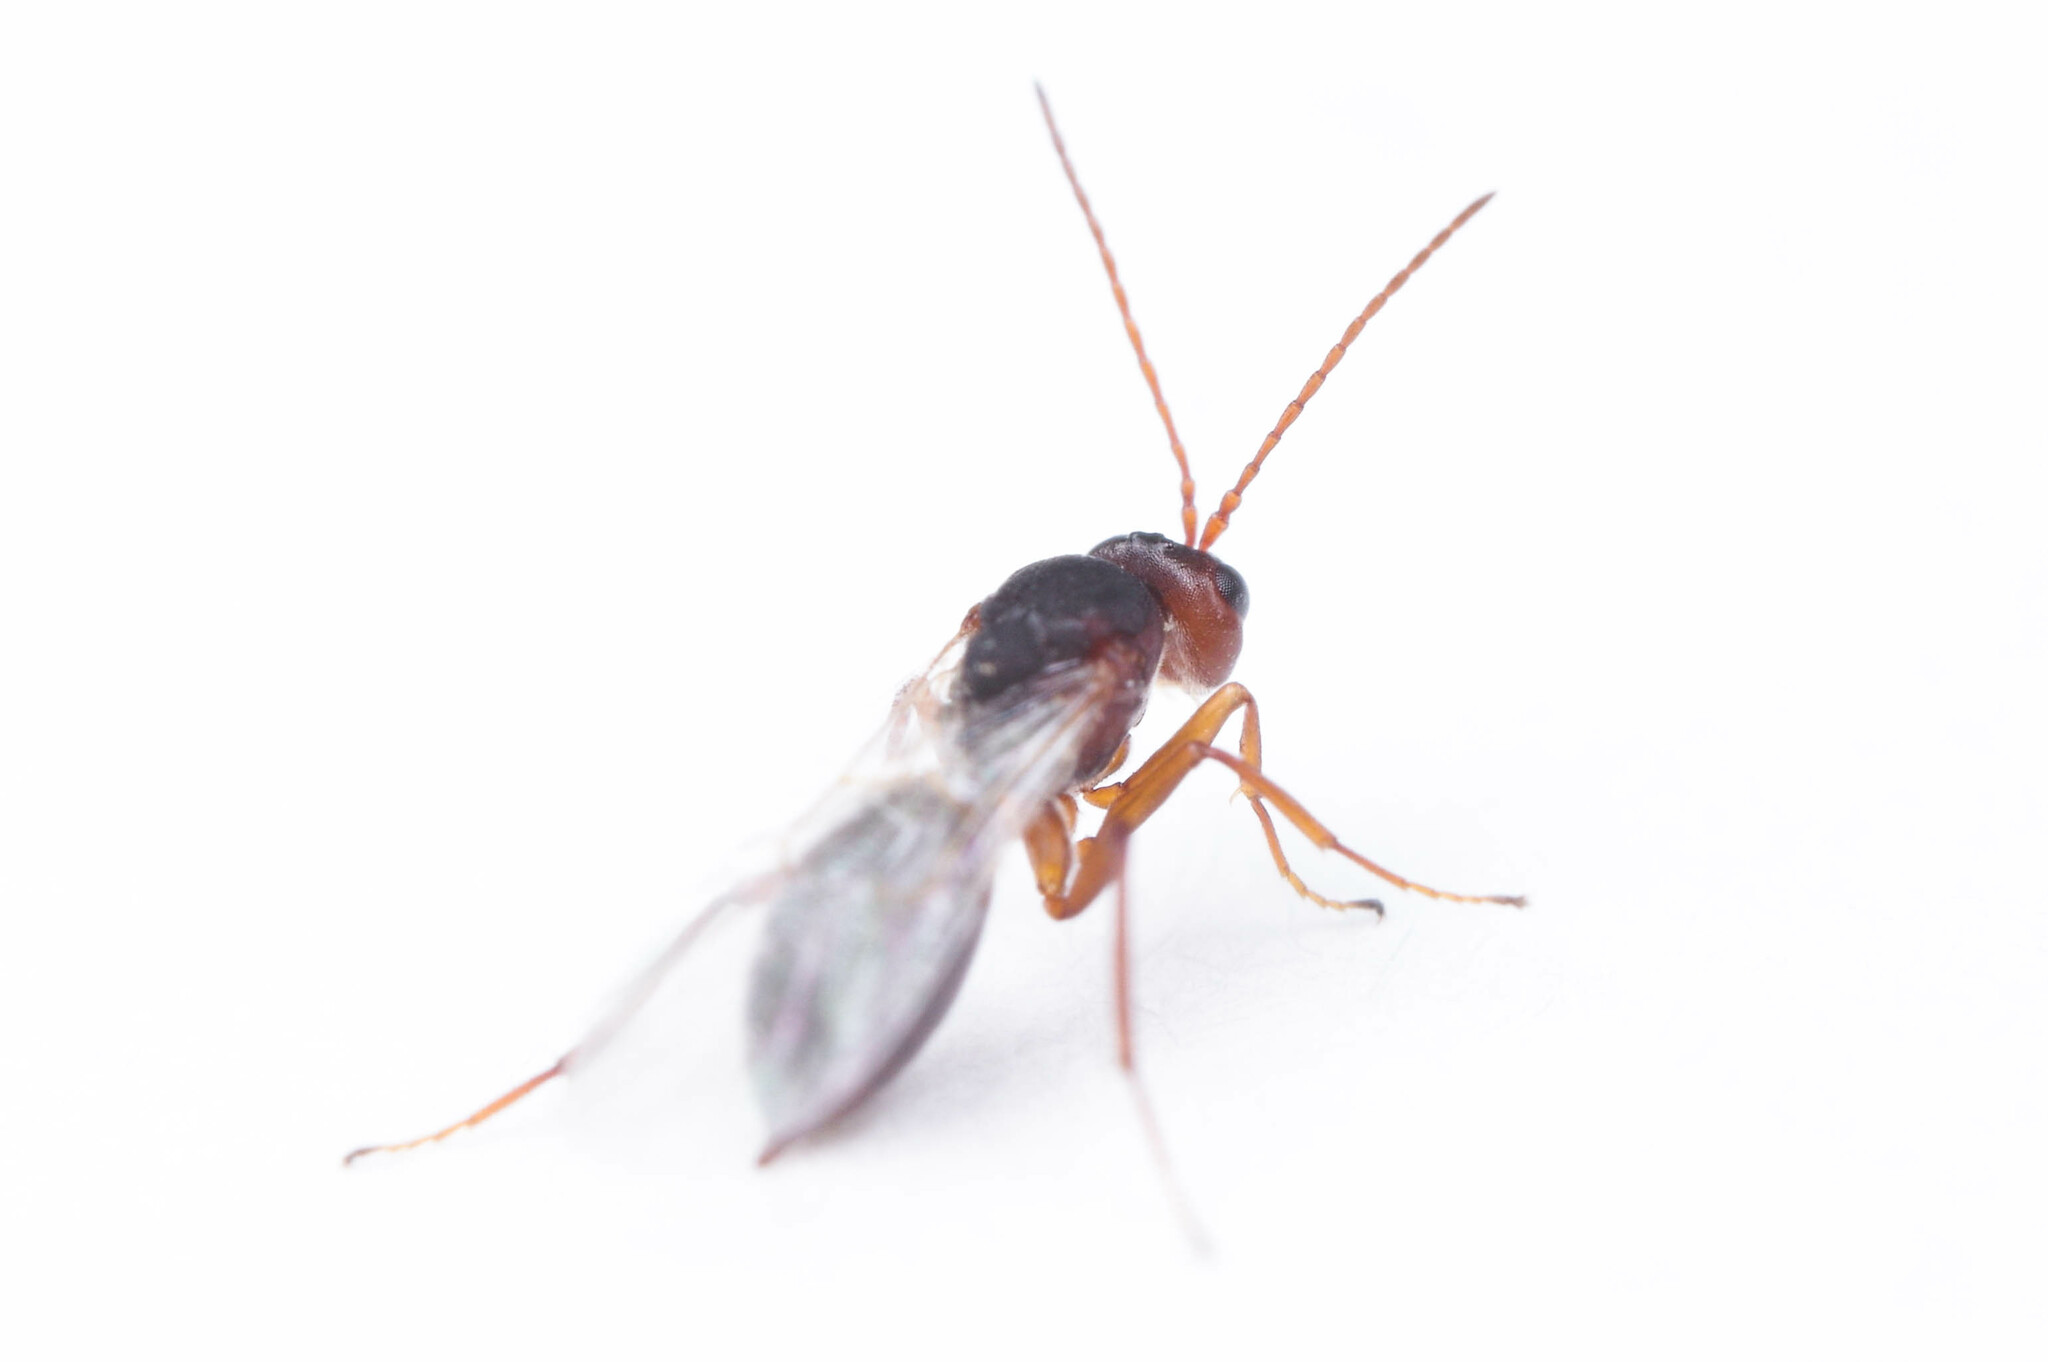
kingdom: Animalia
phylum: Arthropoda
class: Insecta
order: Hymenoptera
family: Cynipidae
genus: Antistrophus
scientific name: Antistrophus rufus
